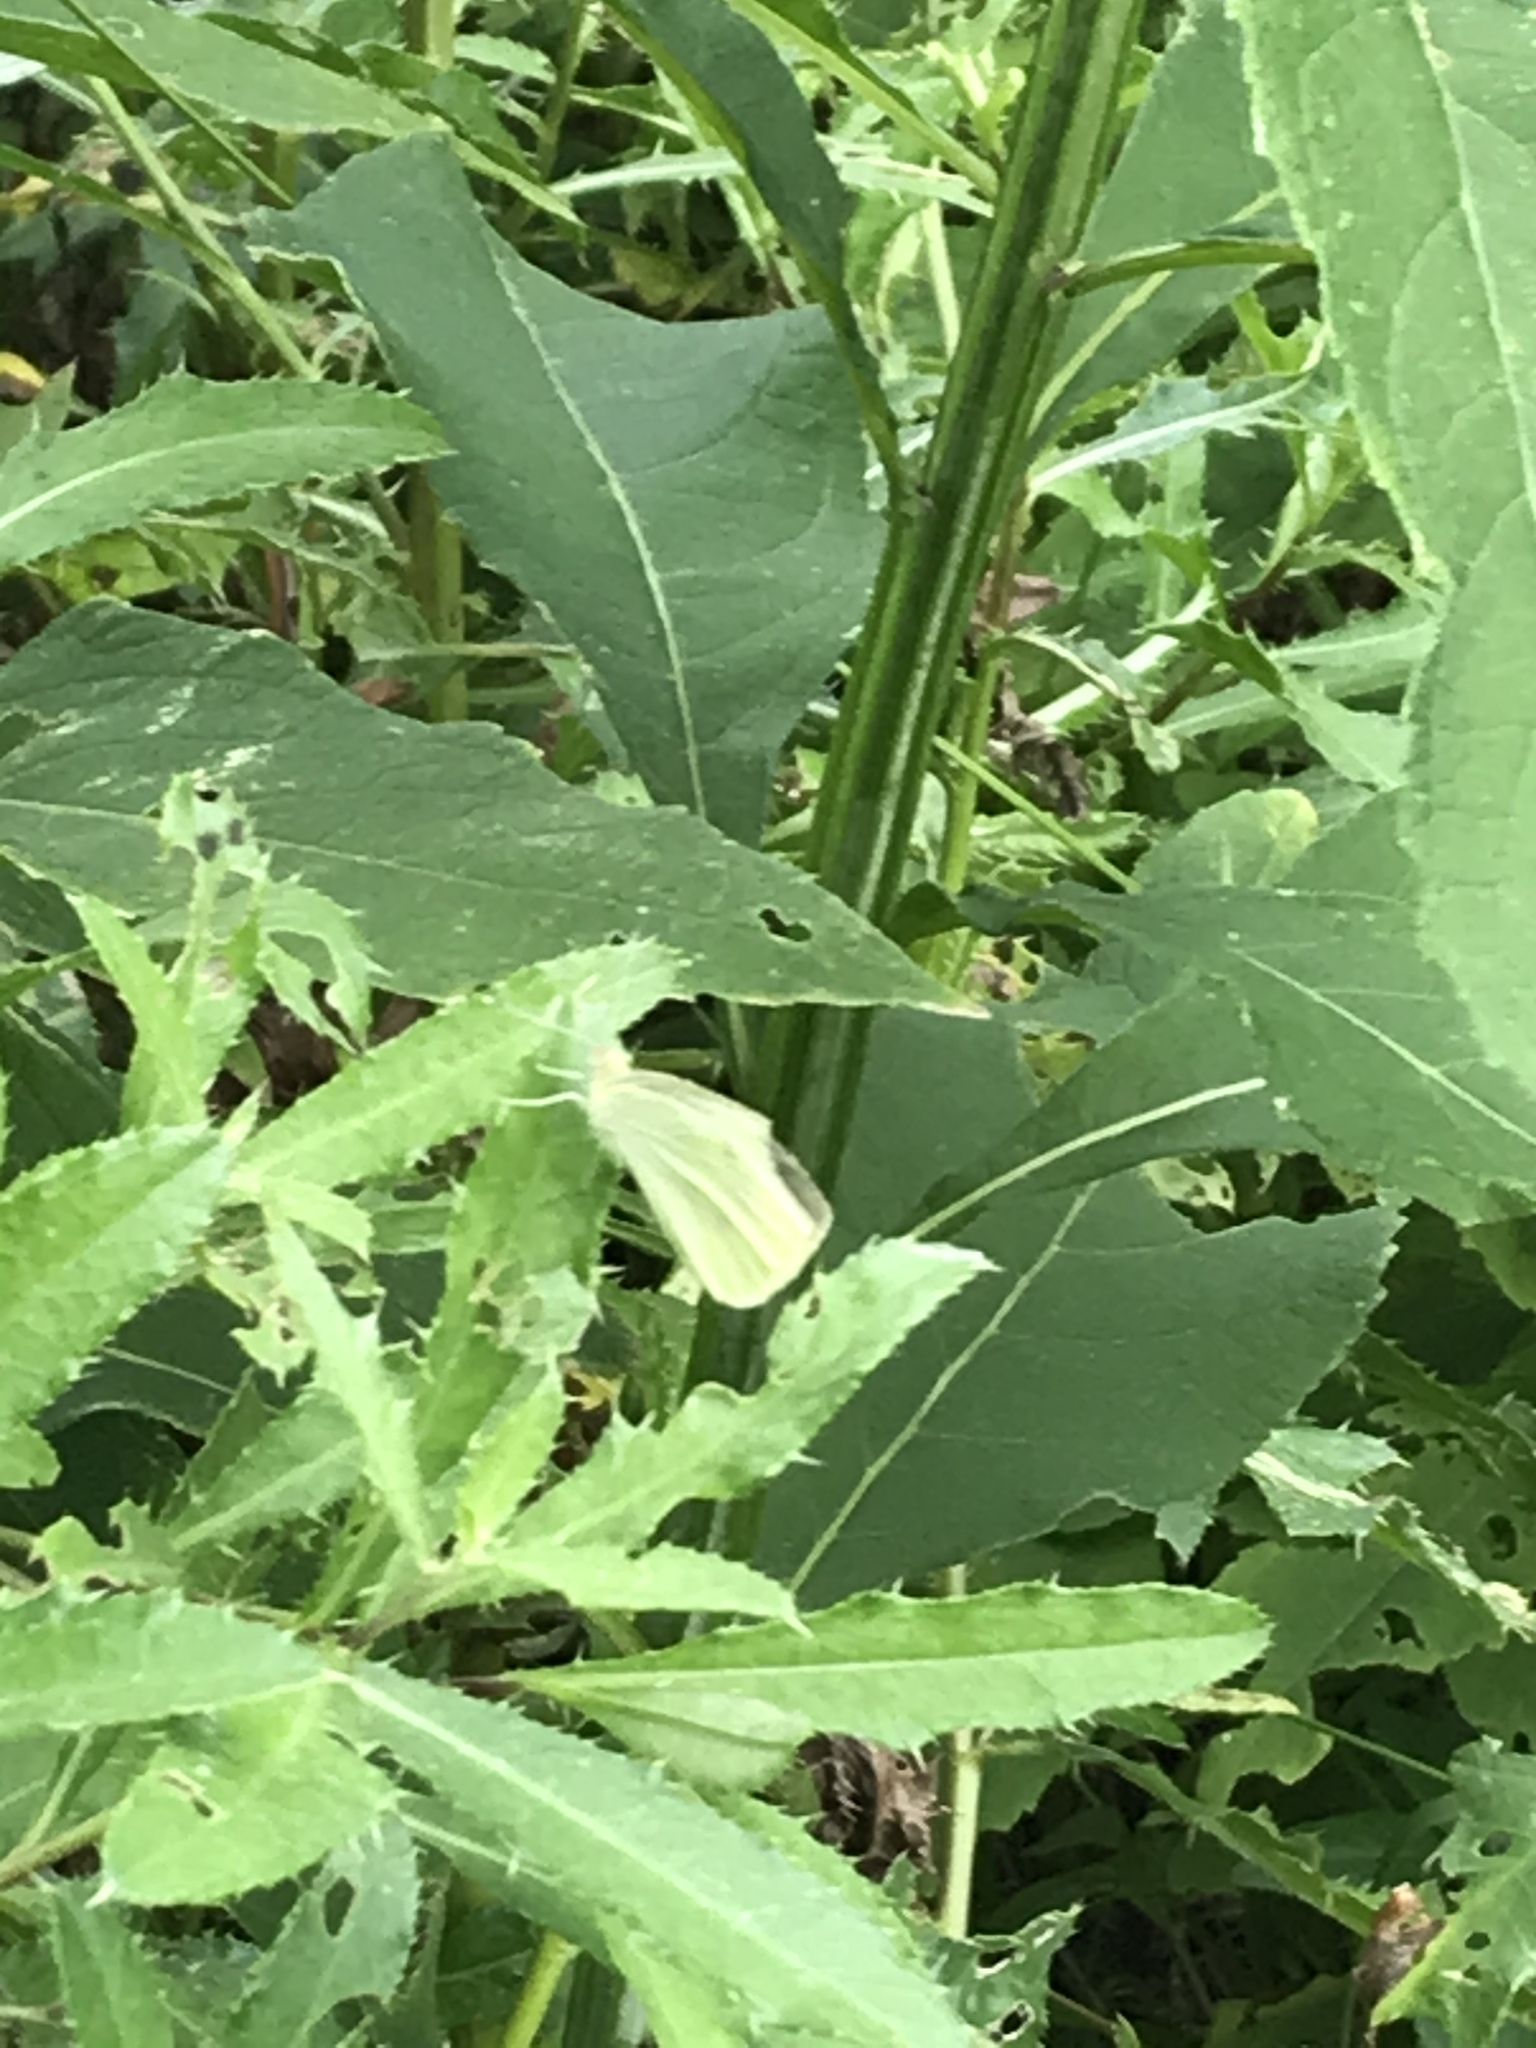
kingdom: Animalia
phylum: Arthropoda
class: Insecta
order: Lepidoptera
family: Pieridae
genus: Pieris
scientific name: Pieris rapae
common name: Small white
